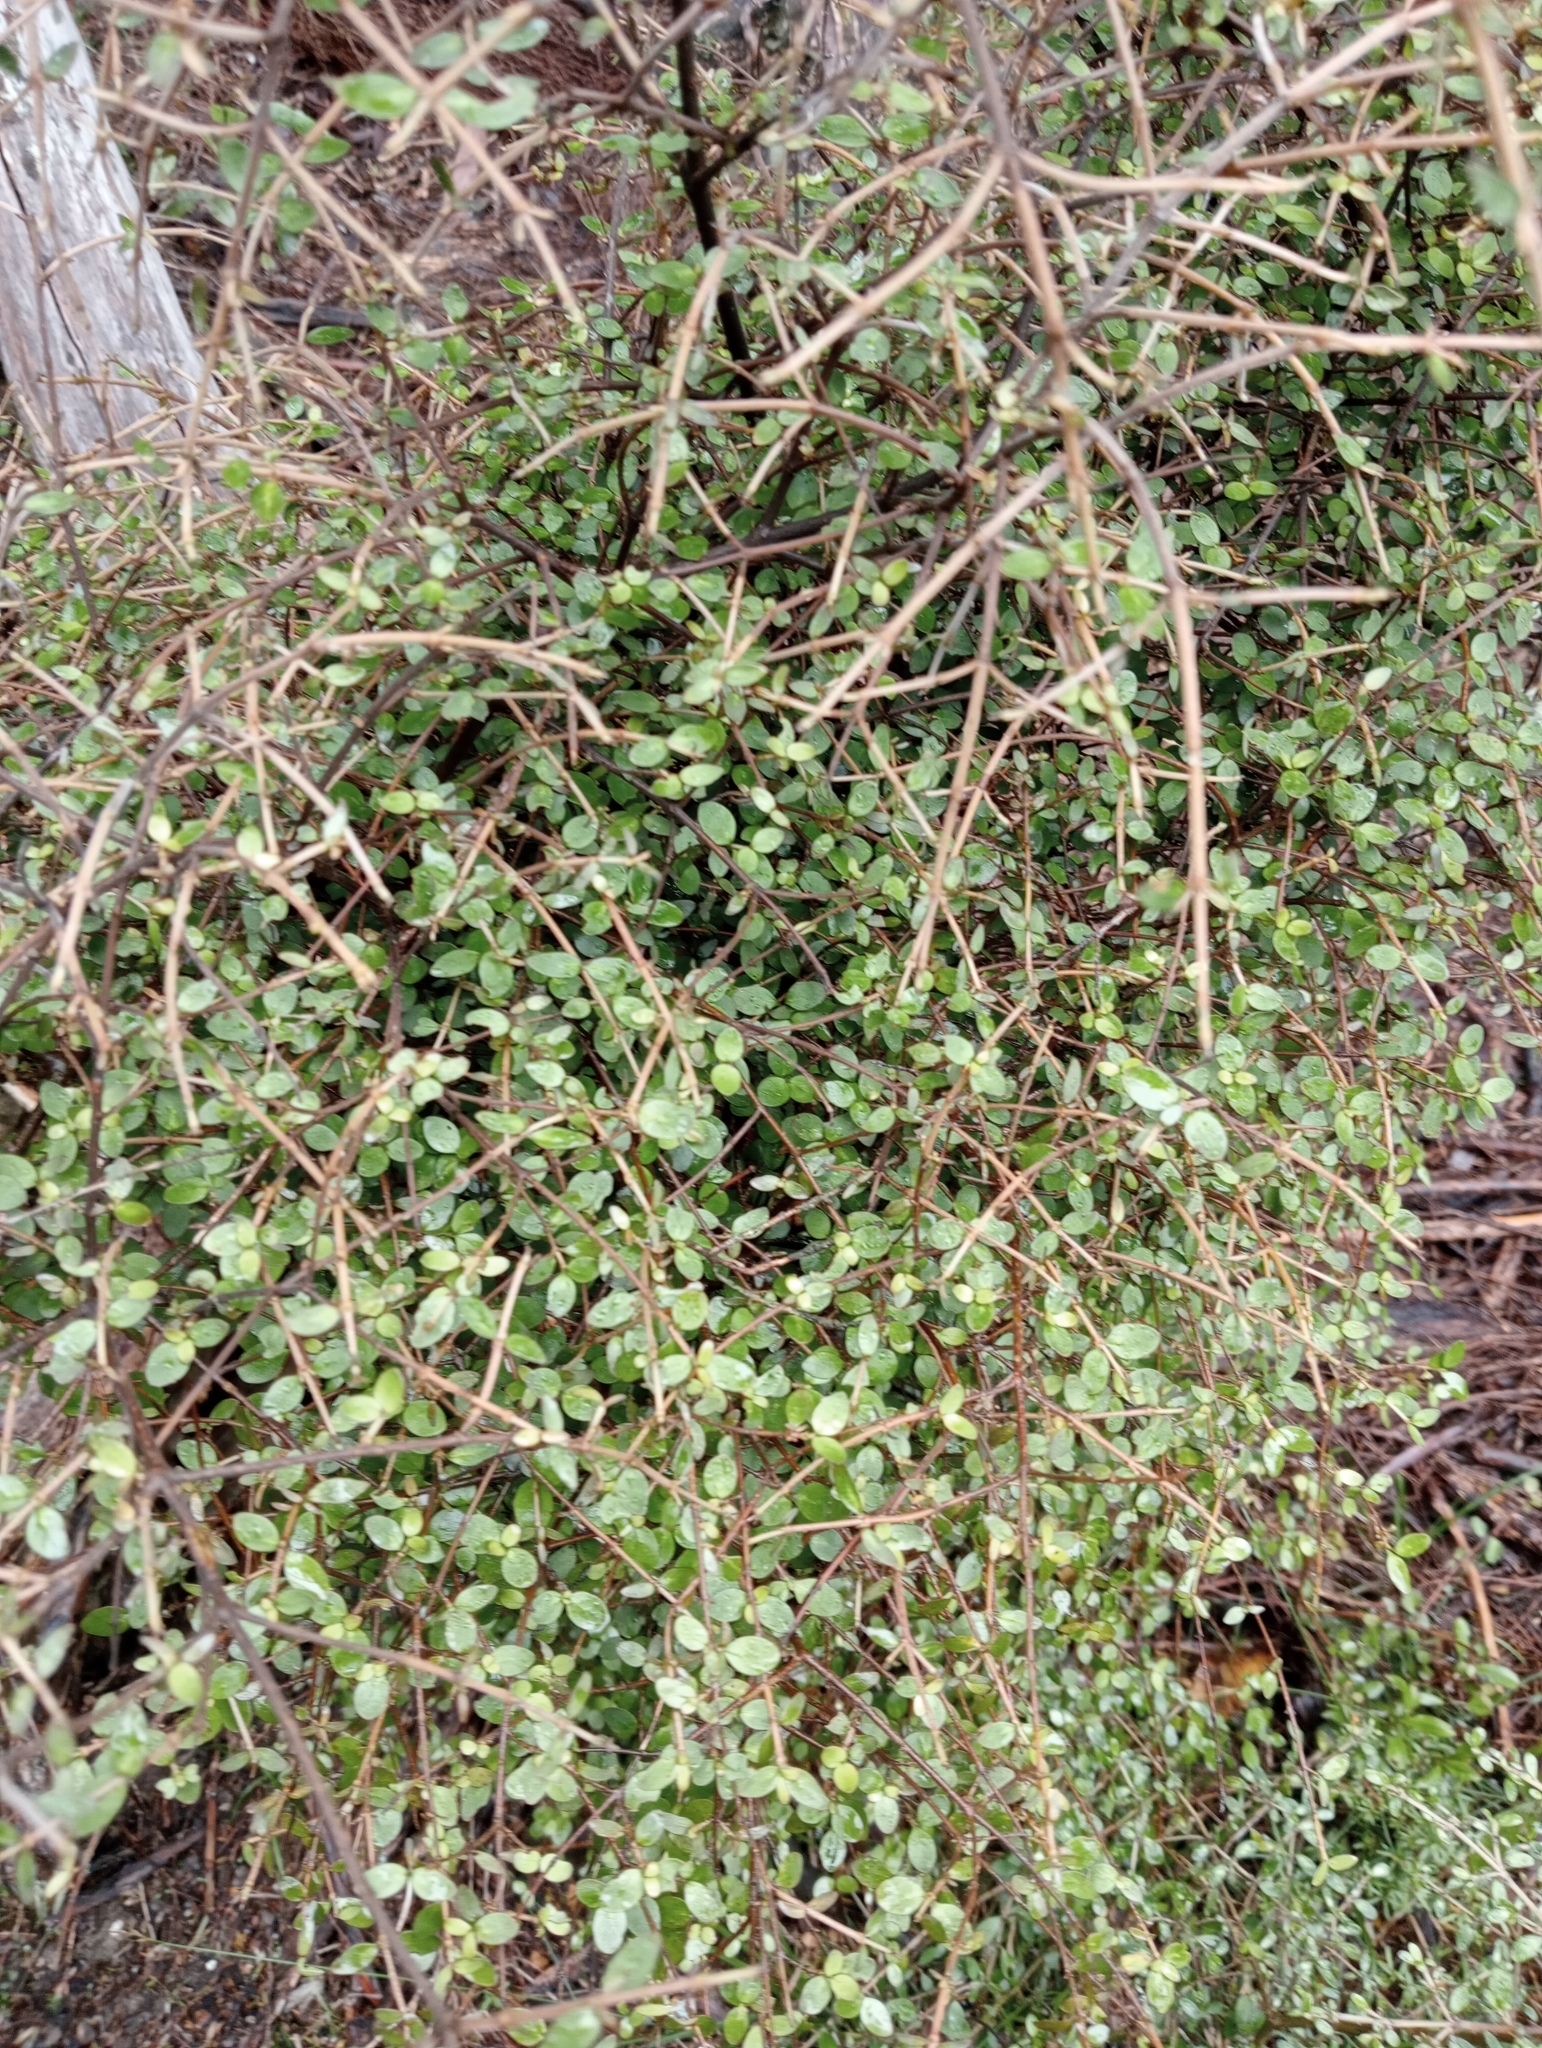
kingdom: Plantae
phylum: Tracheophyta
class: Magnoliopsida
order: Gentianales
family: Rubiaceae
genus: Coprosma
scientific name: Coprosma rhamnoides
